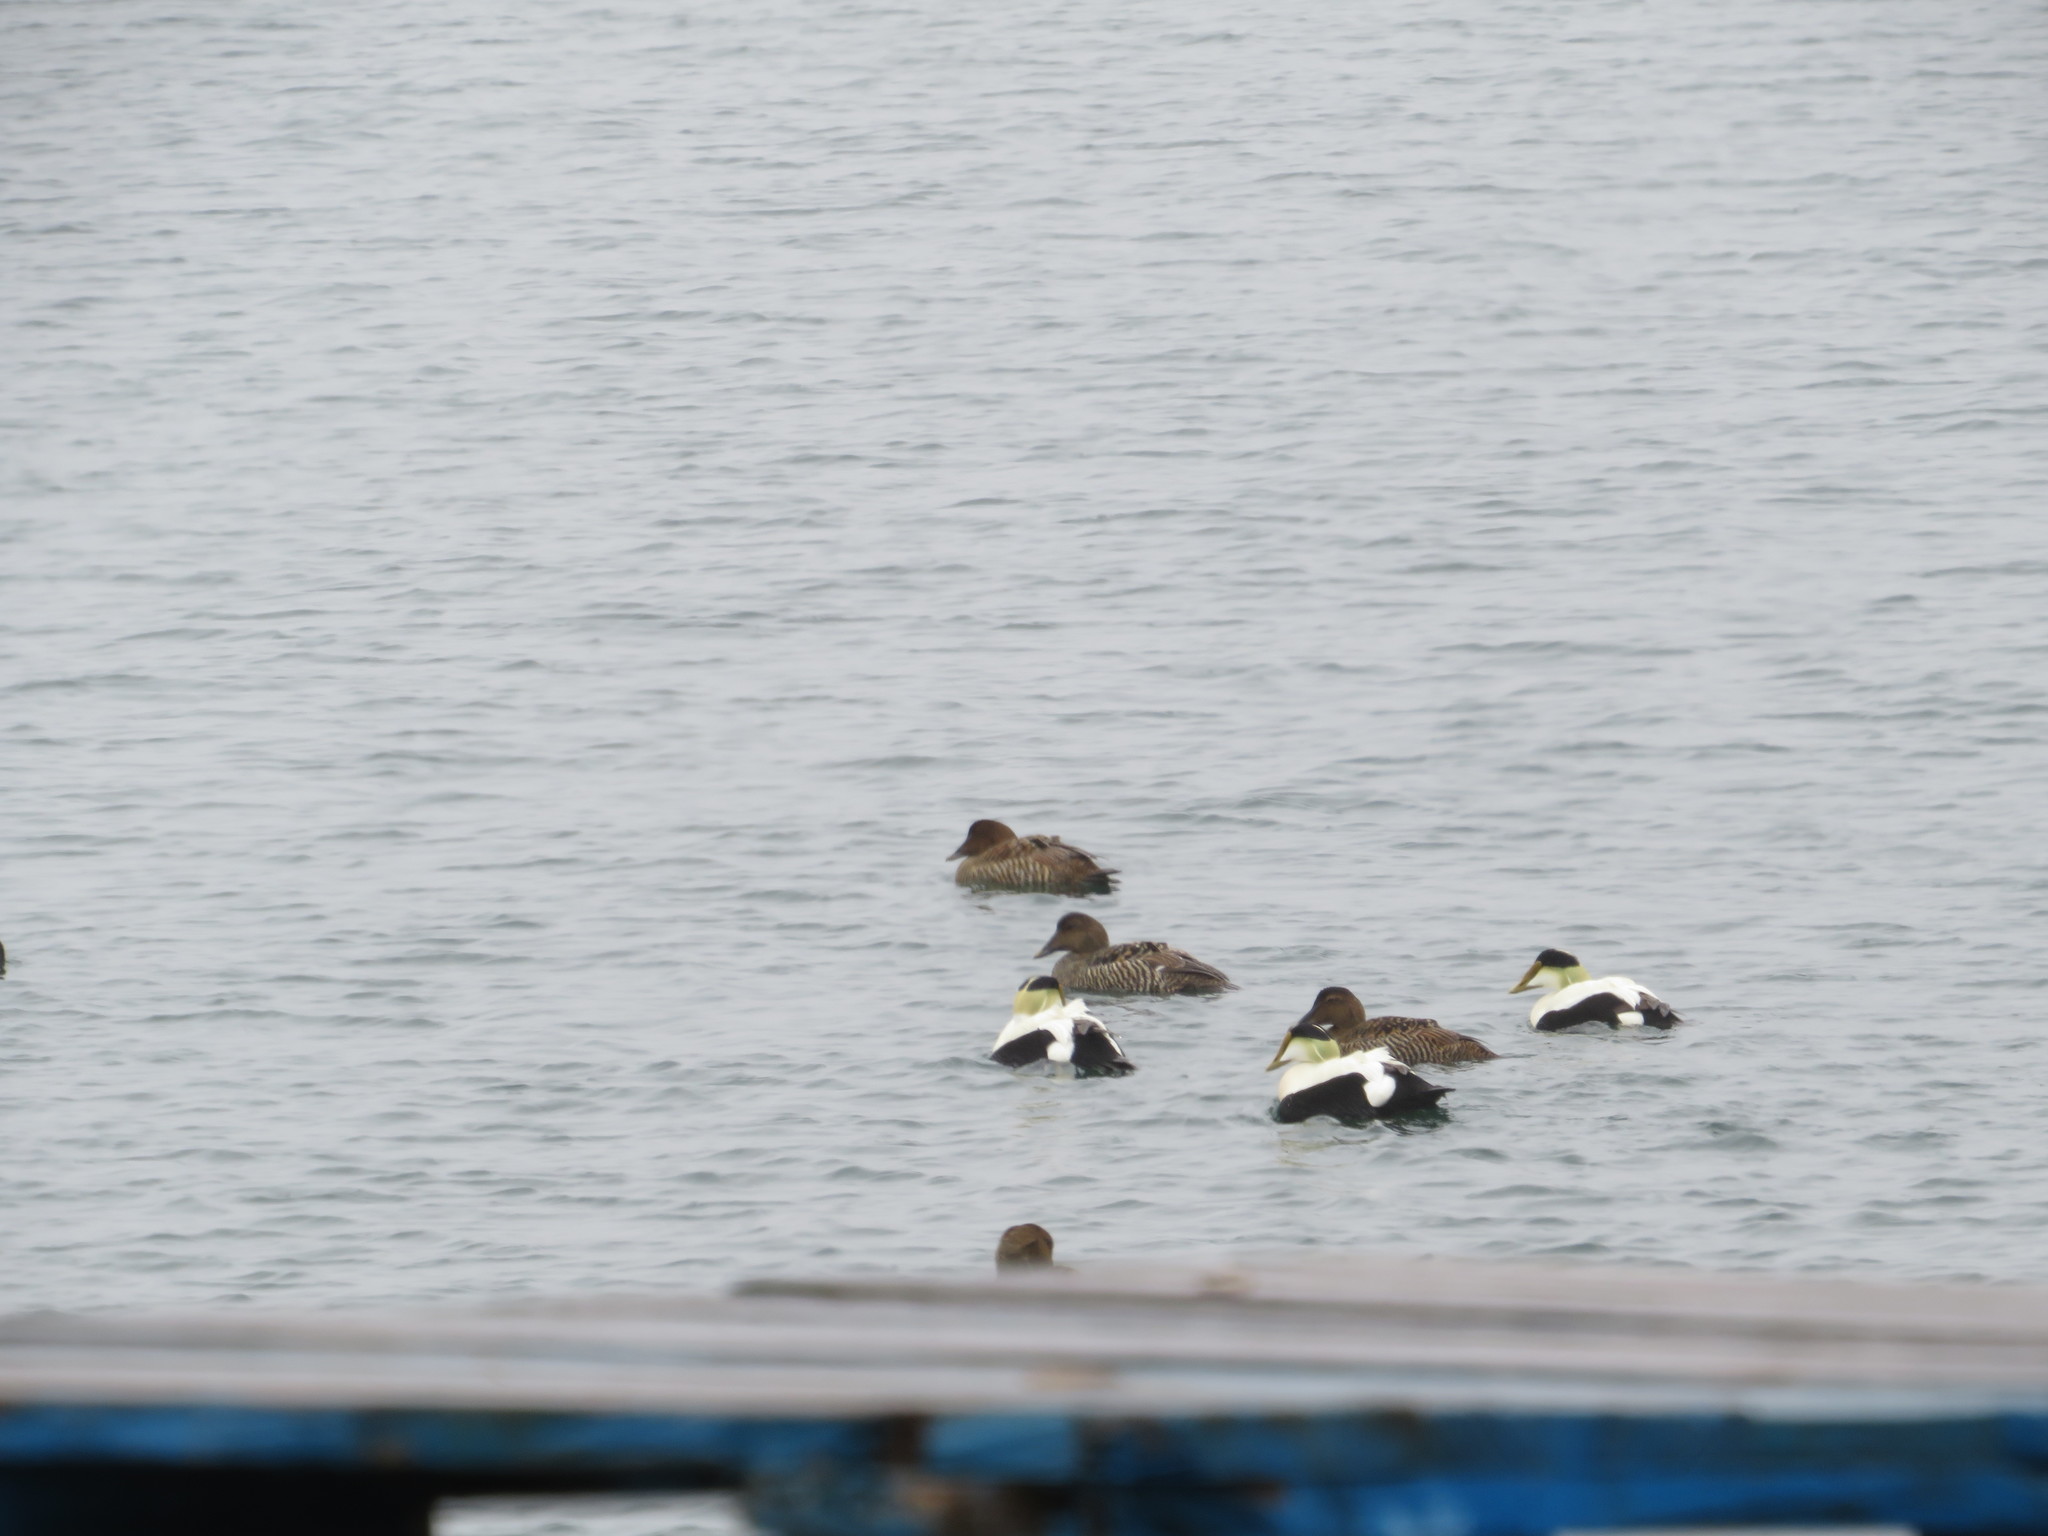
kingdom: Animalia
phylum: Chordata
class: Aves
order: Anseriformes
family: Anatidae
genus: Somateria
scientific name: Somateria mollissima
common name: Common eider
